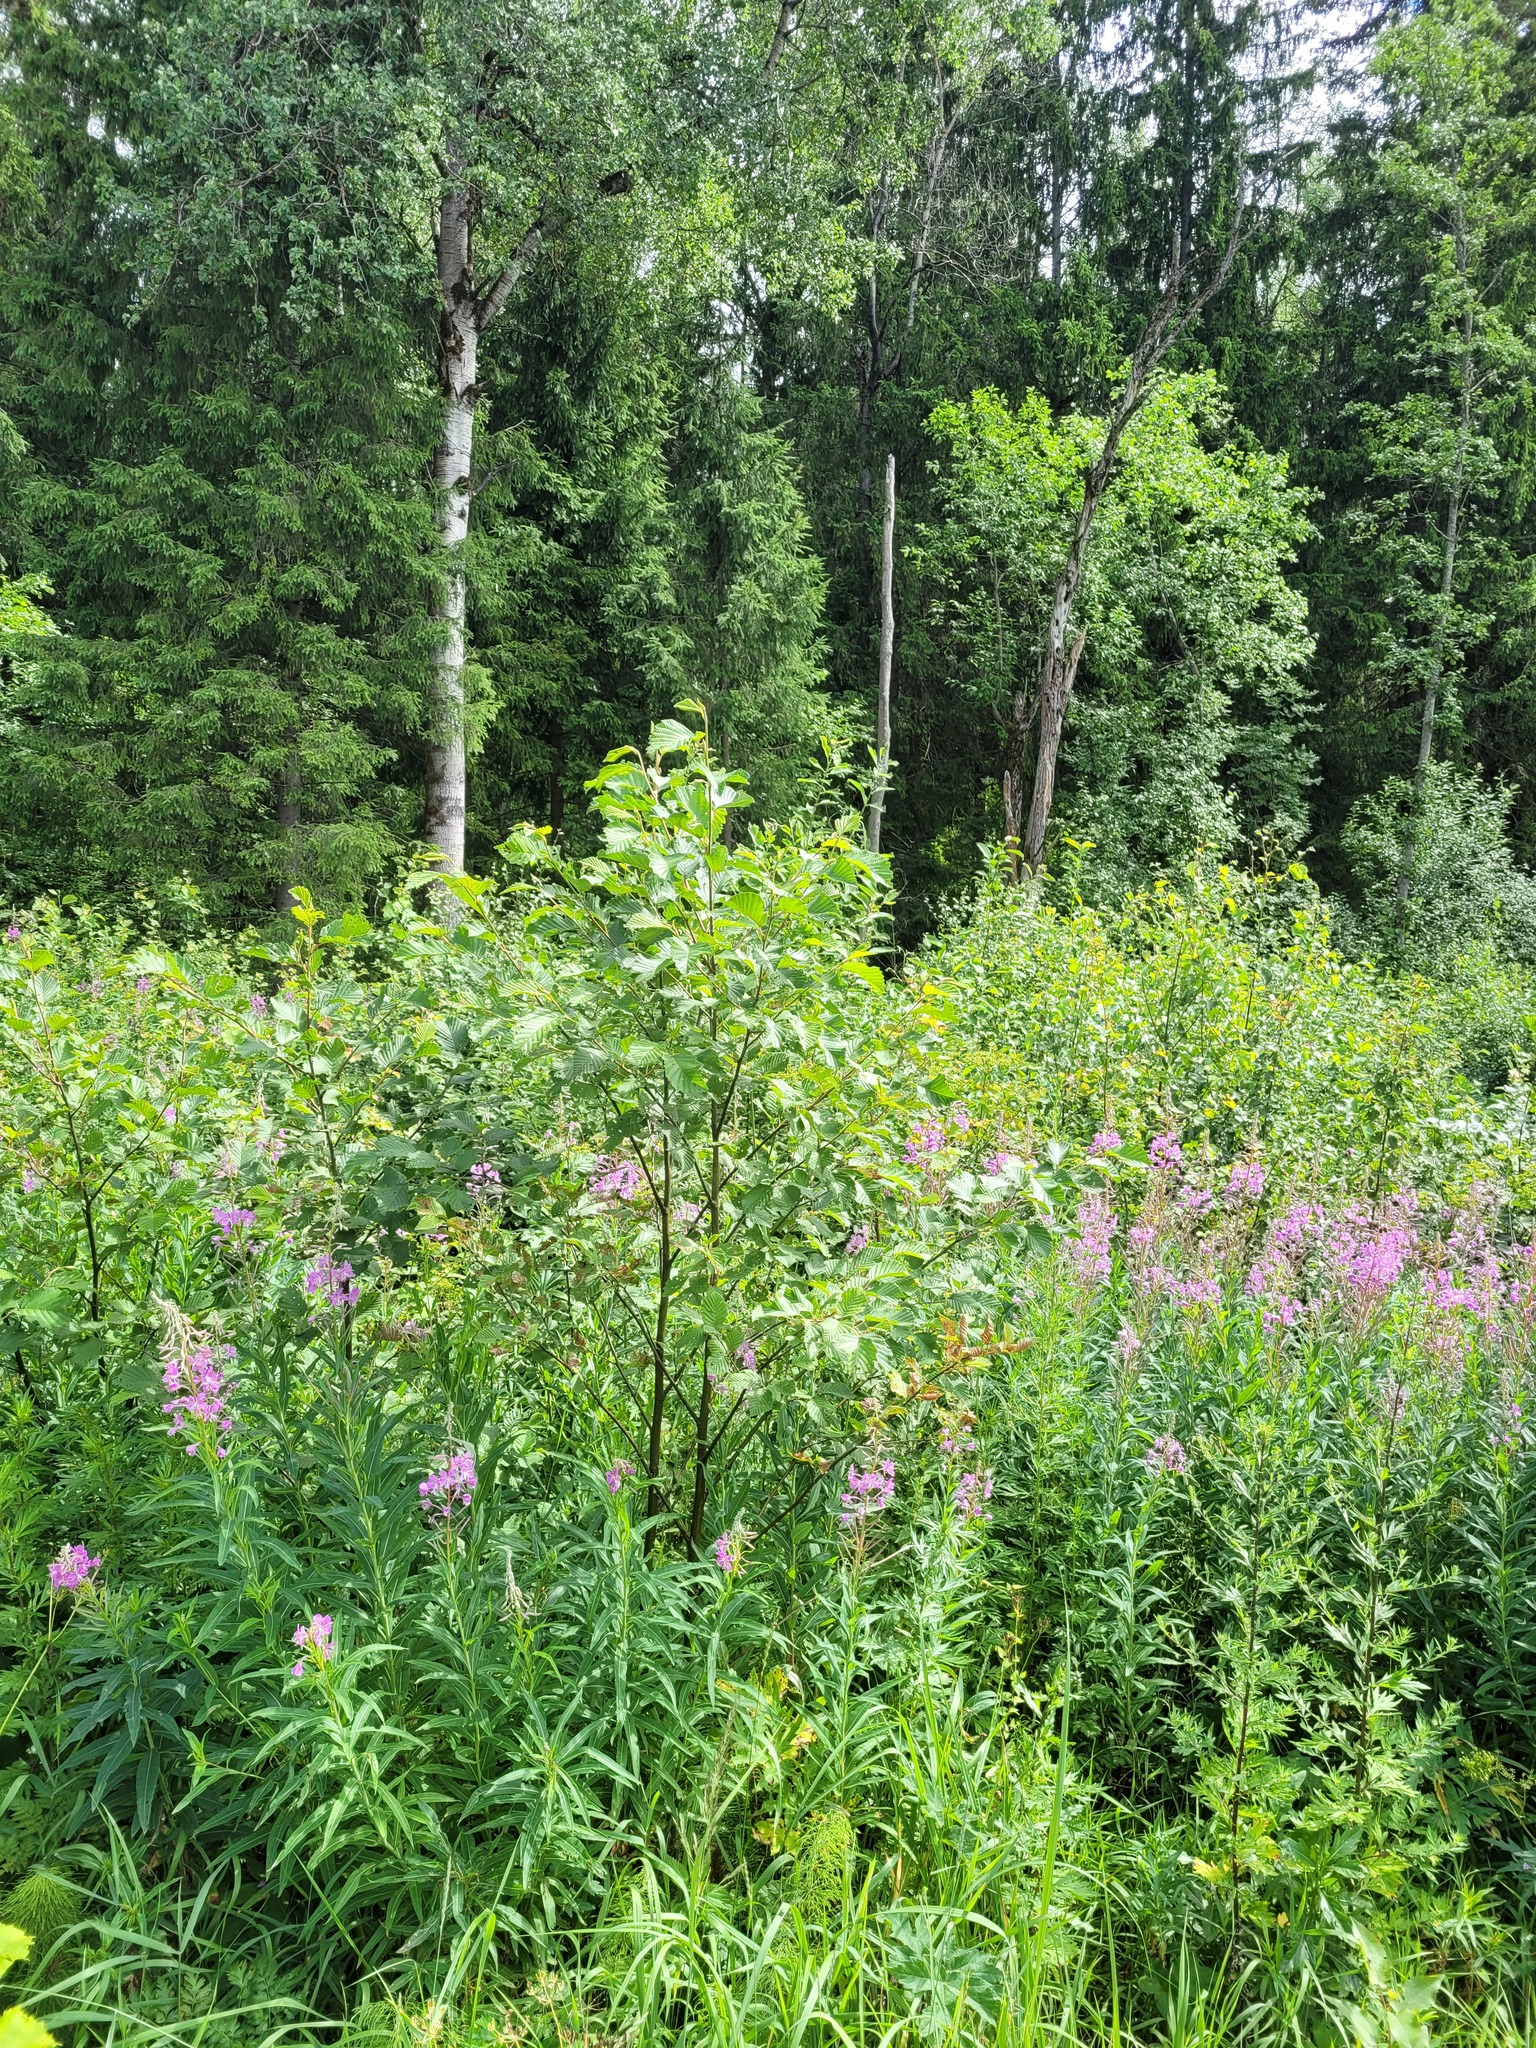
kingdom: Plantae
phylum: Tracheophyta
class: Magnoliopsida
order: Fagales
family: Betulaceae
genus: Alnus
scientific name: Alnus incana
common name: Grey alder
